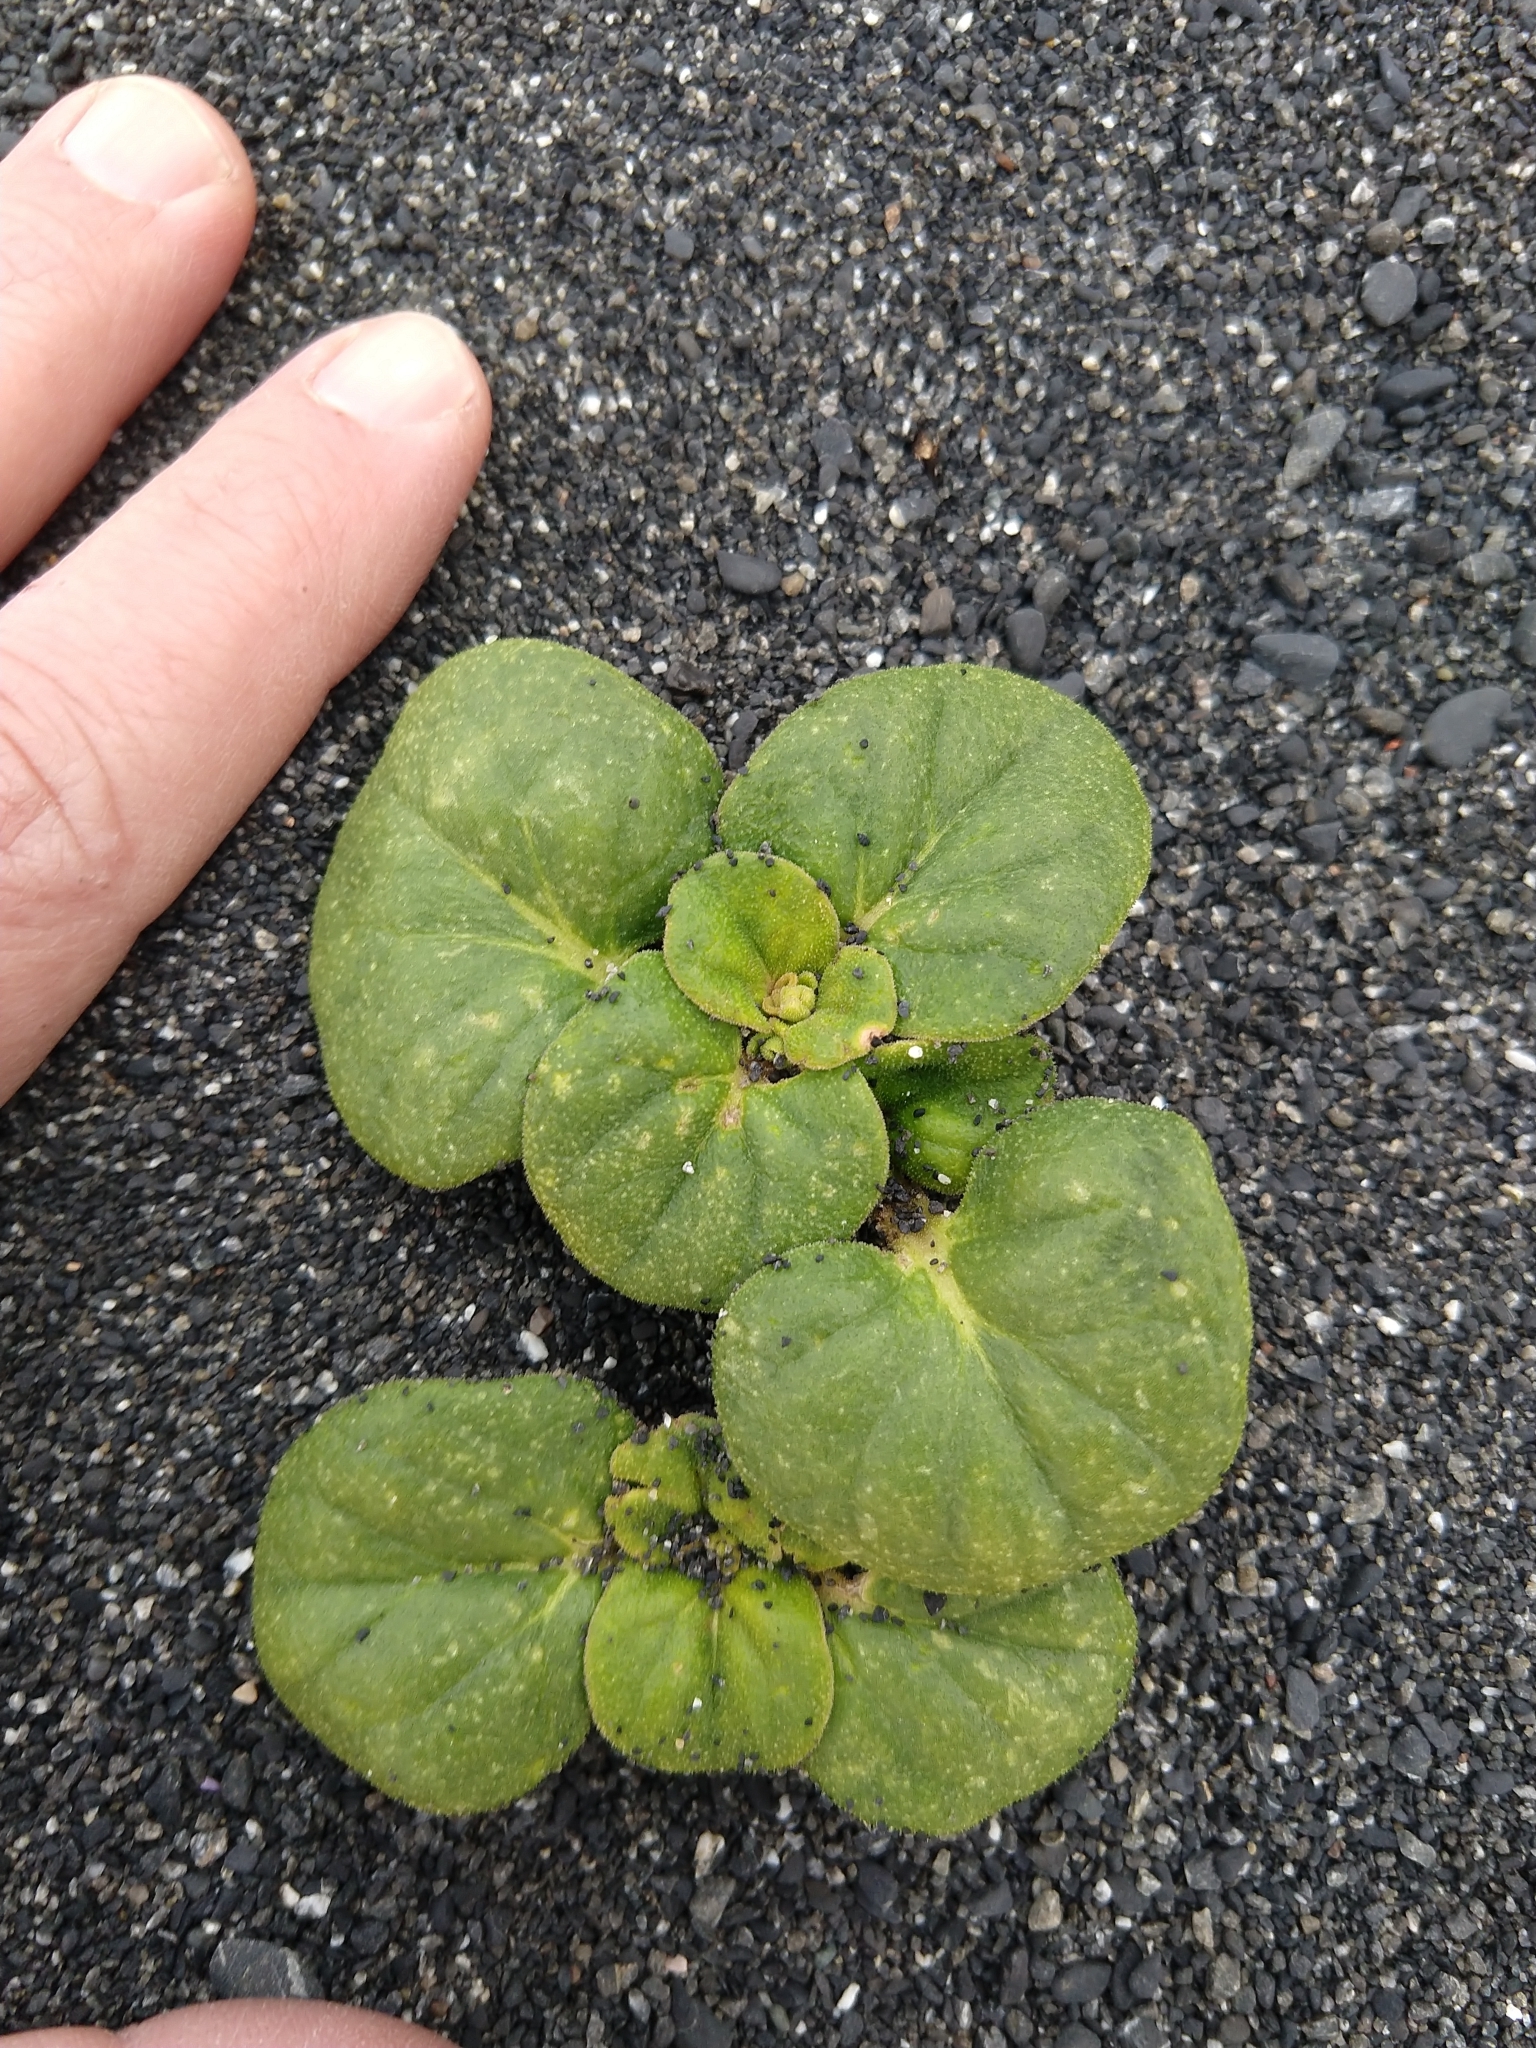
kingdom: Plantae
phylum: Tracheophyta
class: Magnoliopsida
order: Caryophyllales
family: Nyctaginaceae
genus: Abronia
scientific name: Abronia latifolia
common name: Yellow sand-verbena
